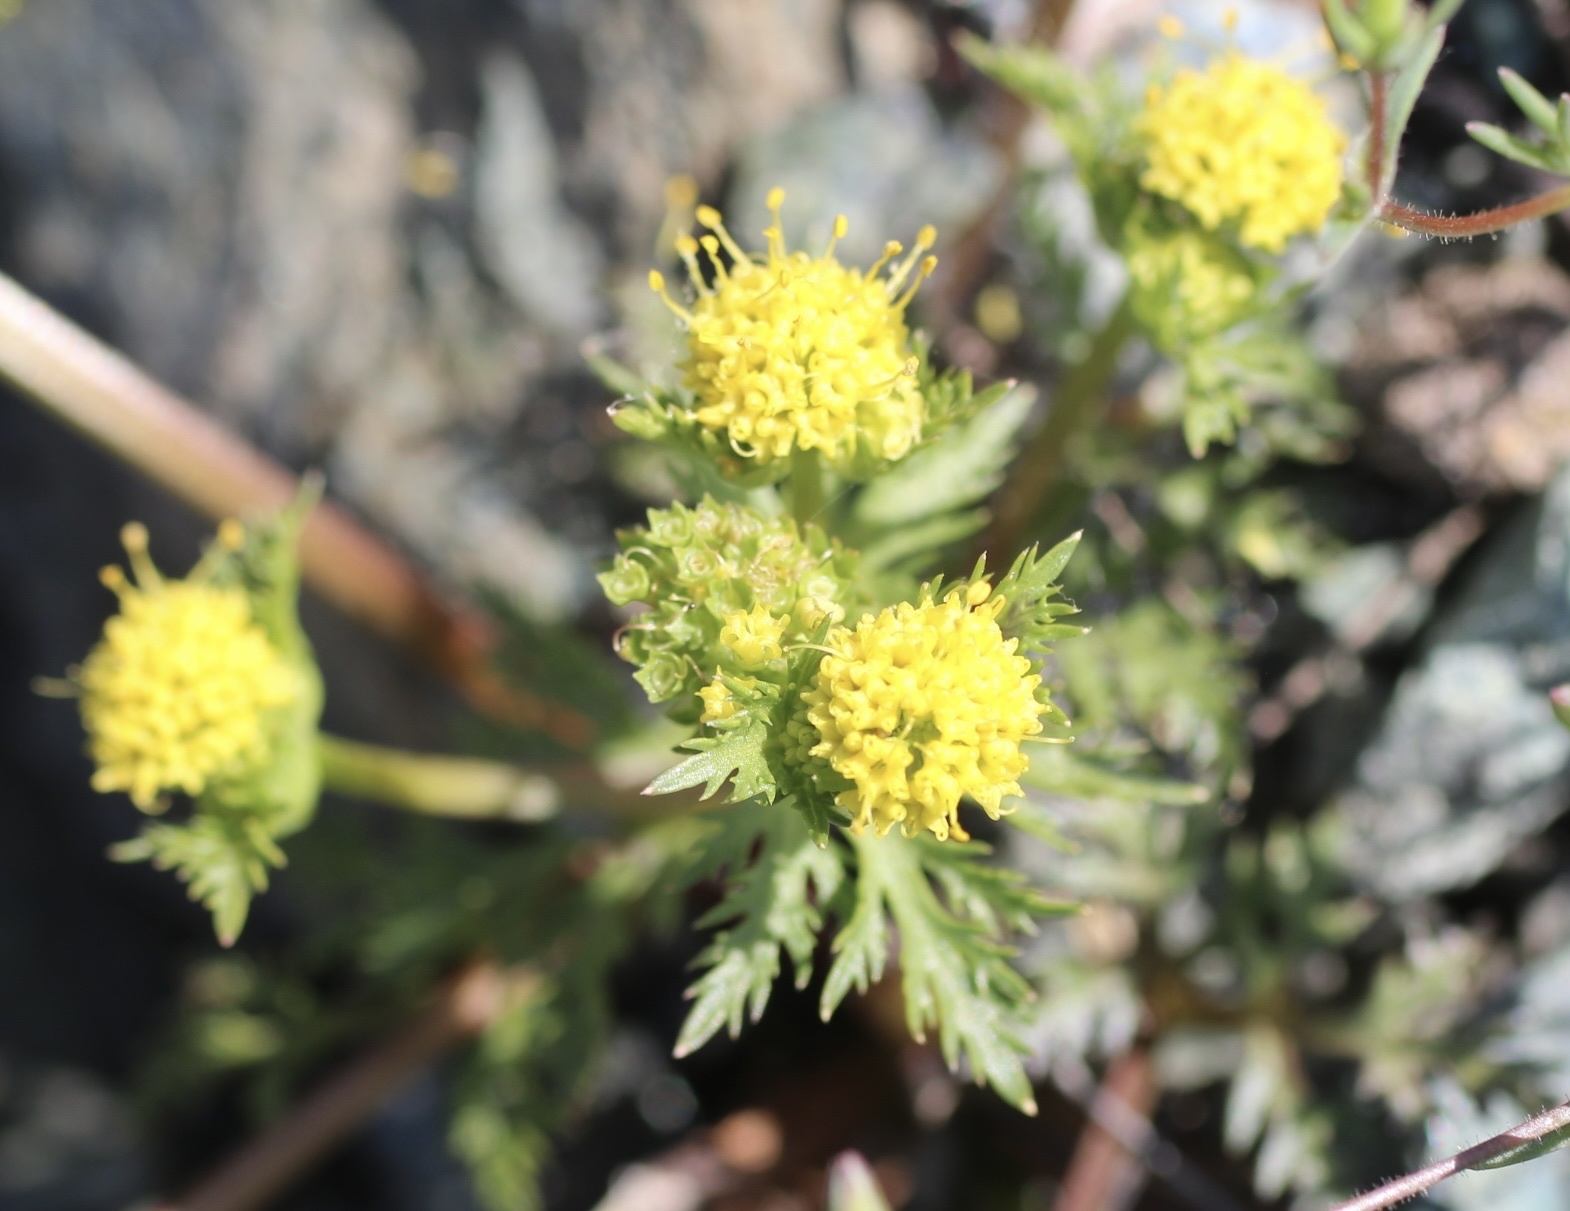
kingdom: Plantae
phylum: Tracheophyta
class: Magnoliopsida
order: Apiales
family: Apiaceae
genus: Sanicula
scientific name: Sanicula tuberosa
